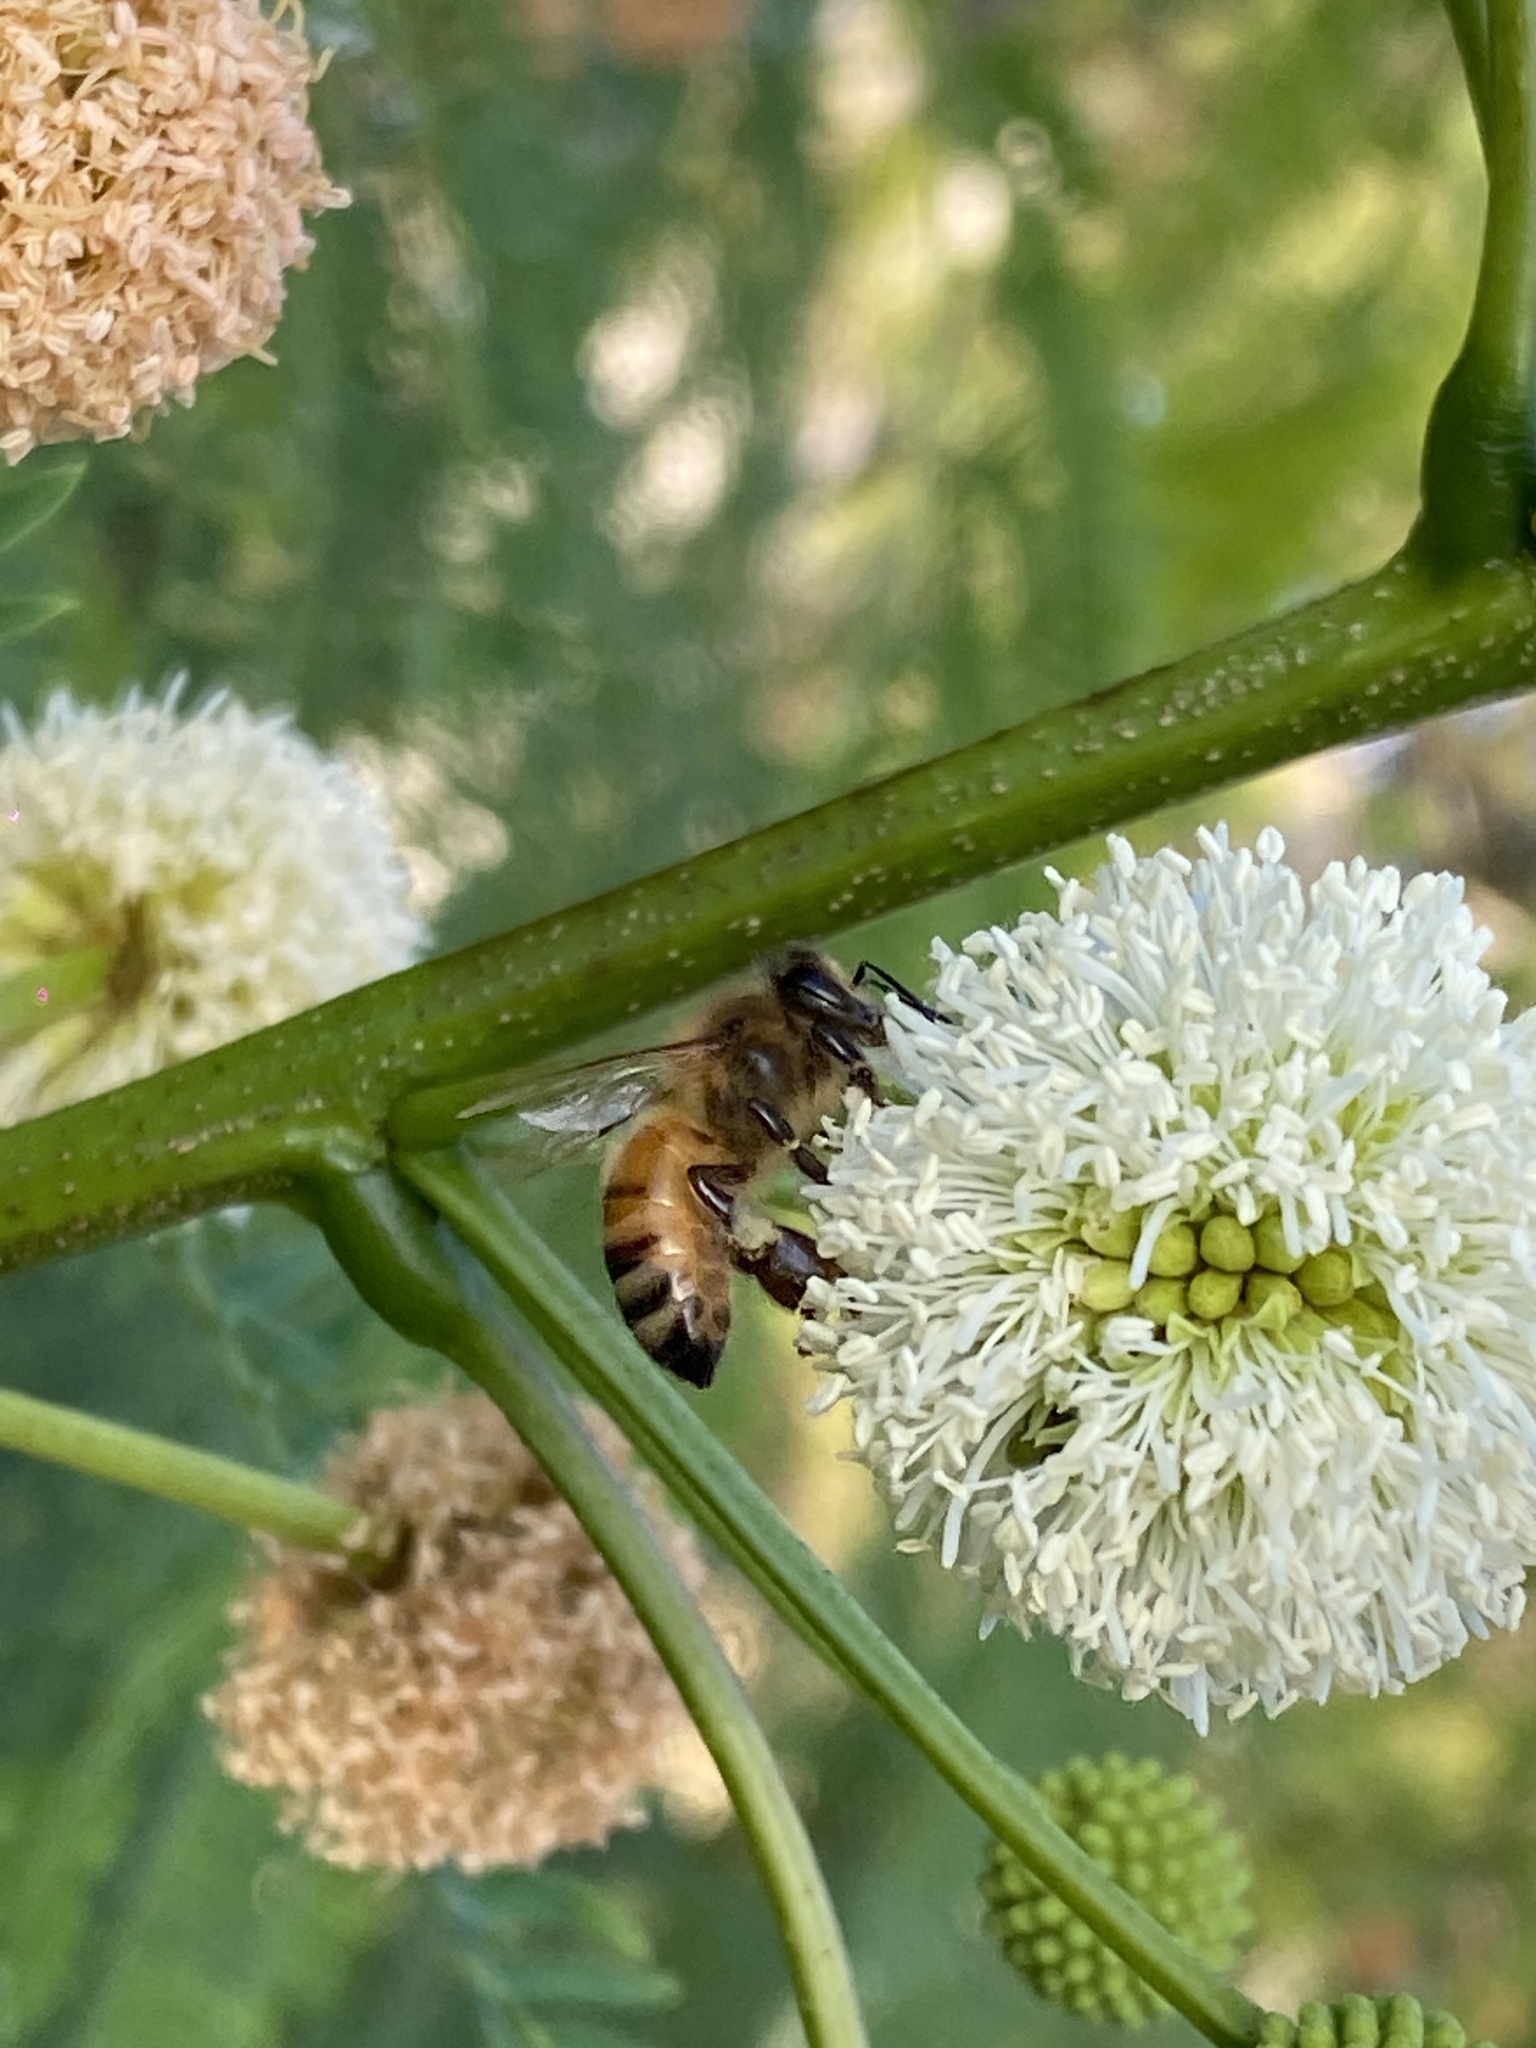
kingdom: Animalia
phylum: Arthropoda
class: Insecta
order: Hymenoptera
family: Apidae
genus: Apis
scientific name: Apis mellifera
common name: Honey bee
